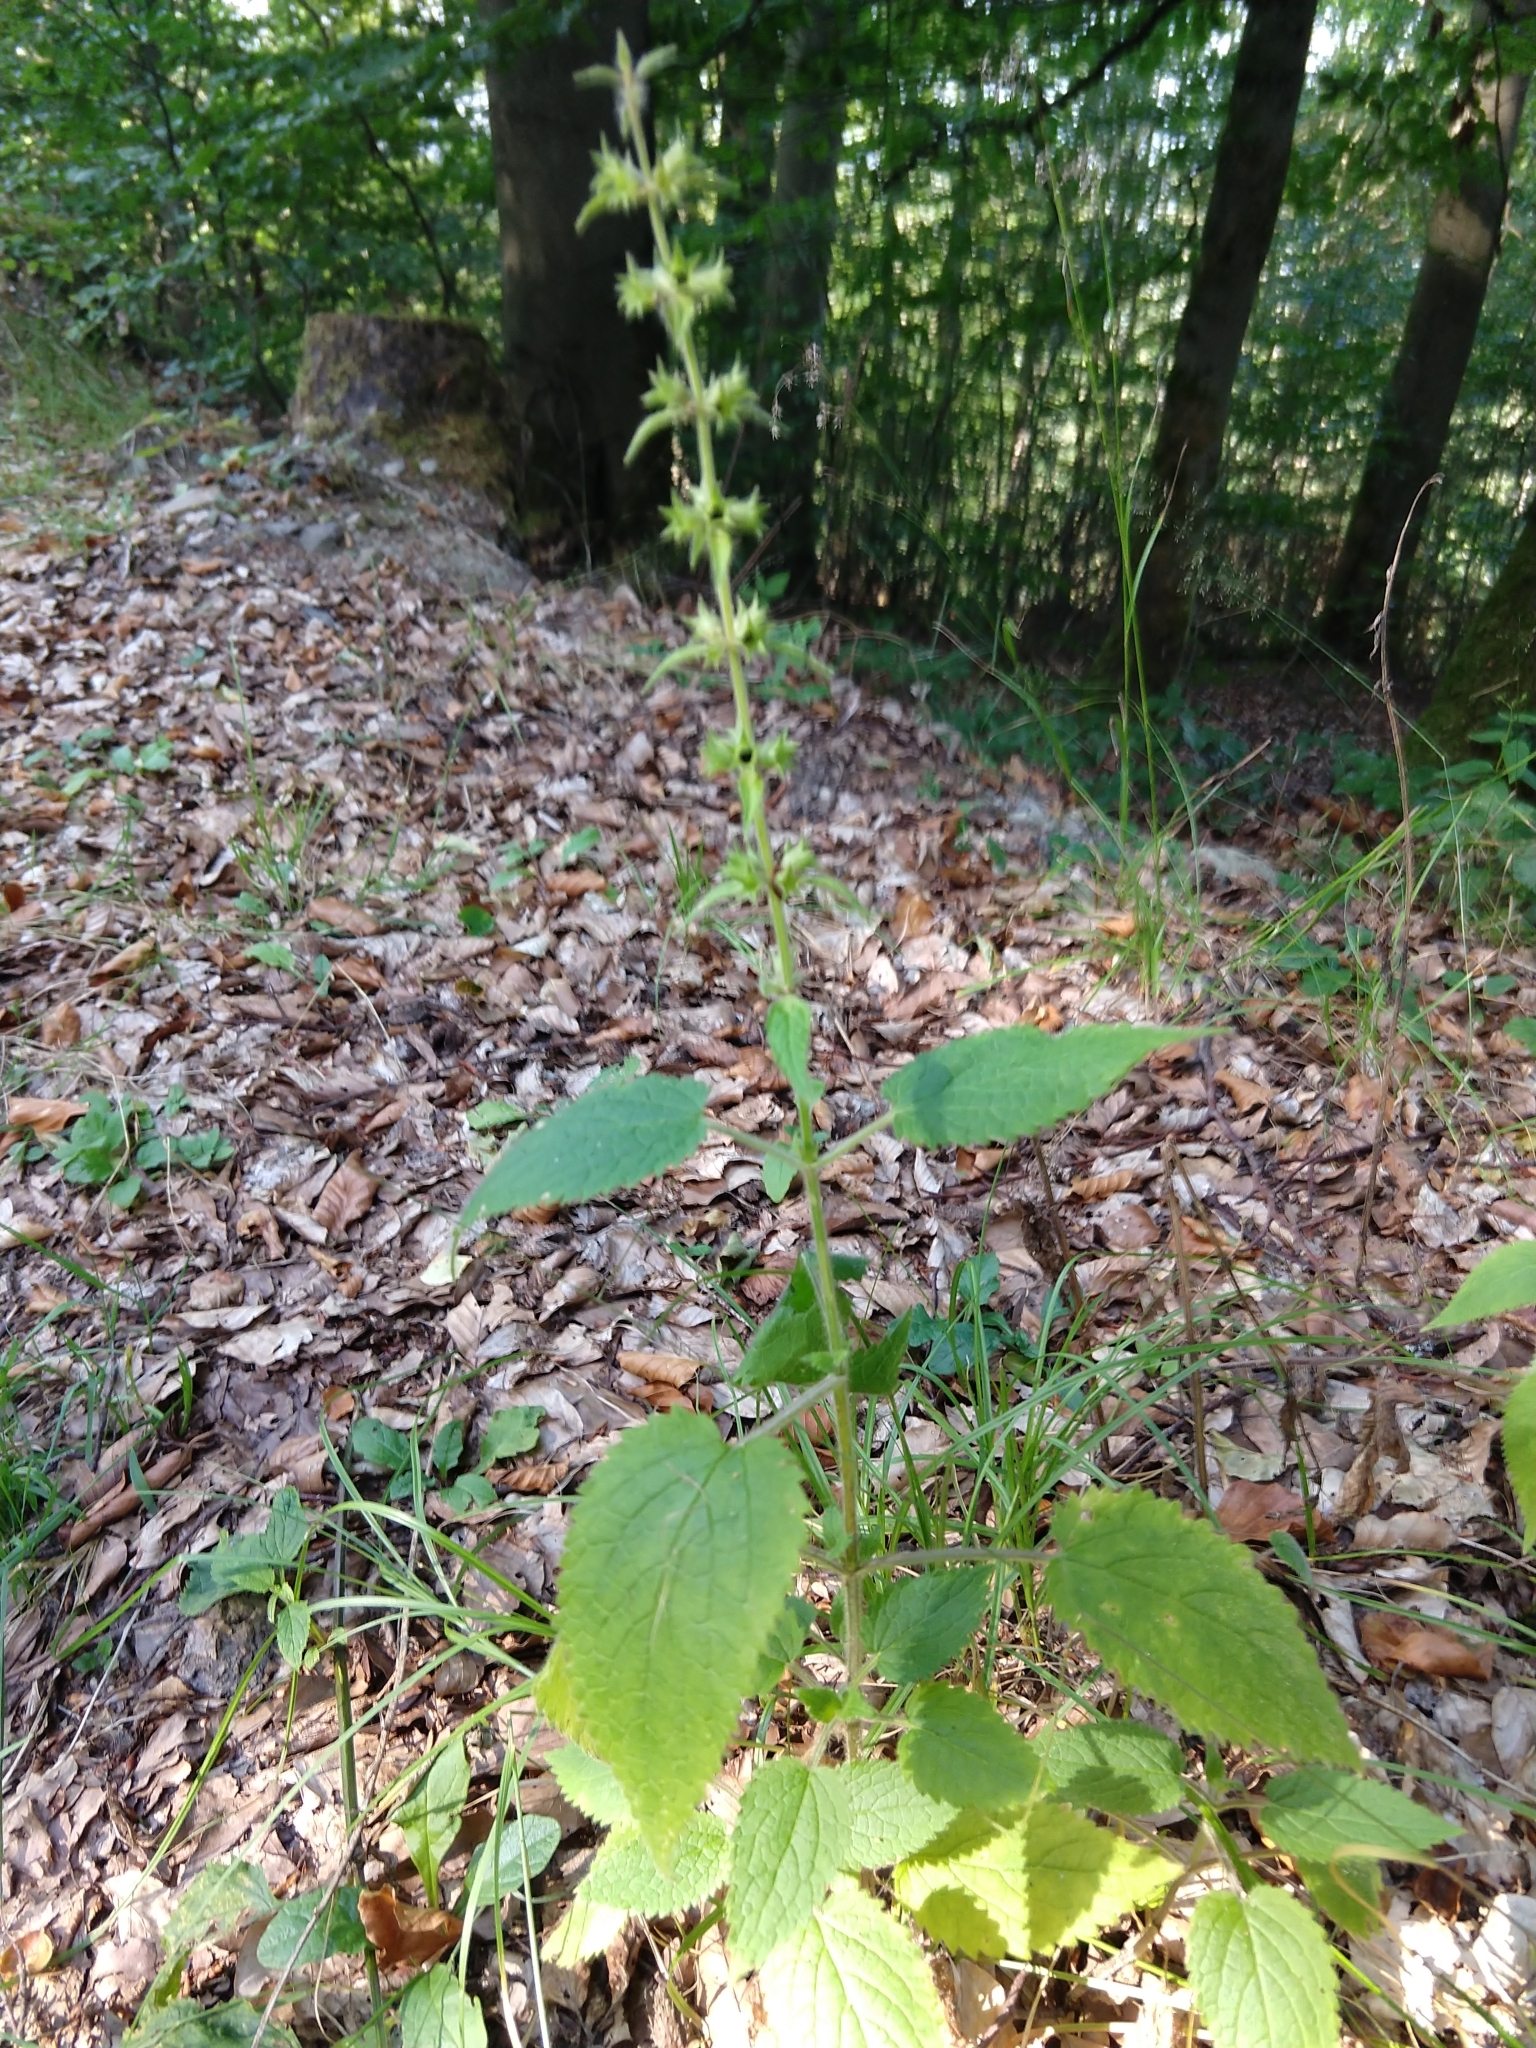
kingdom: Plantae
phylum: Tracheophyta
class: Magnoliopsida
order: Lamiales
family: Lamiaceae
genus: Stachys
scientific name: Stachys sylvatica
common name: Hedge woundwort
